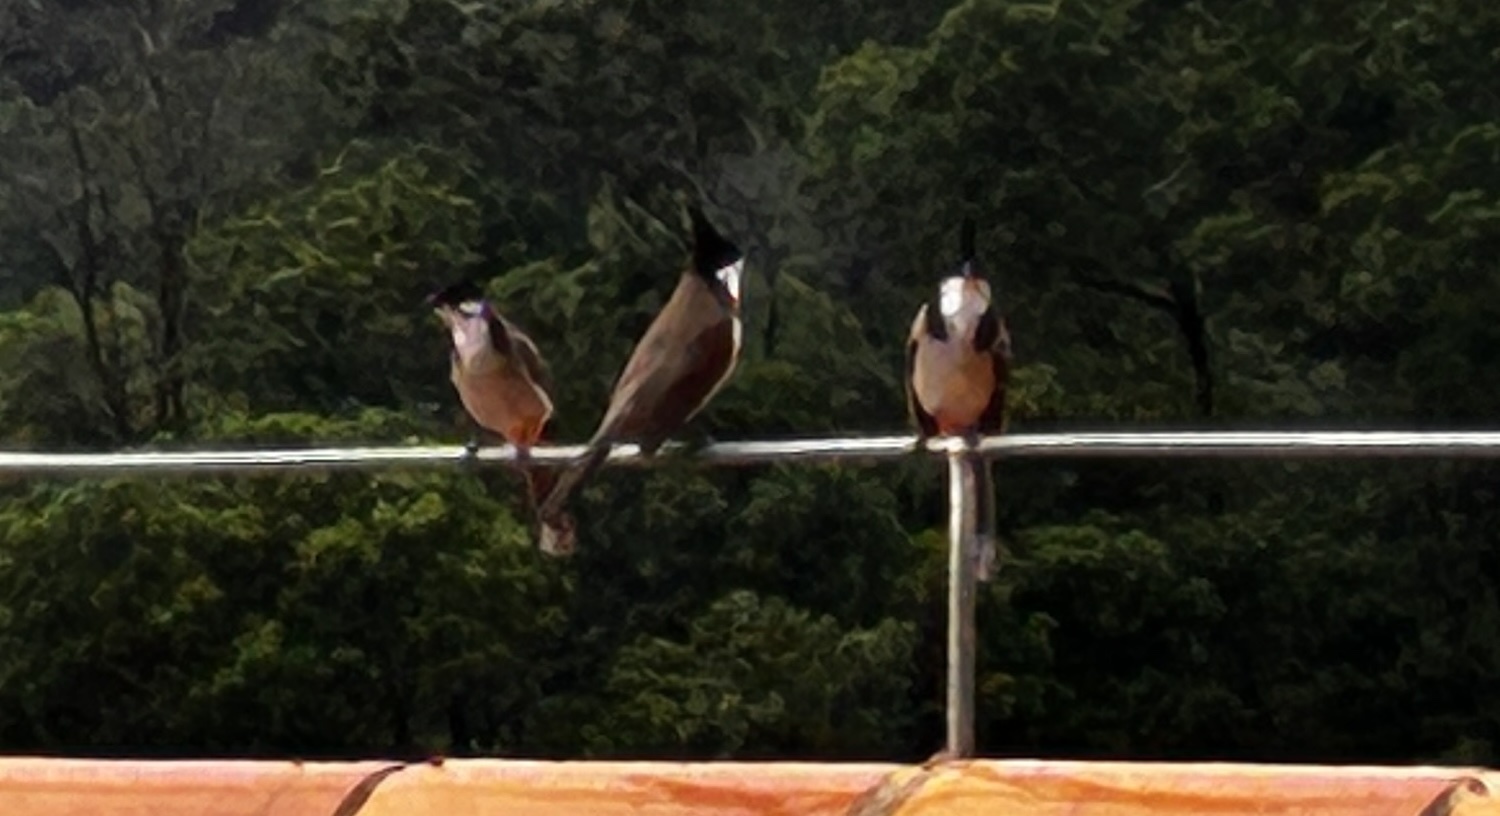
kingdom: Animalia
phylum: Chordata
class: Aves
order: Passeriformes
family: Pycnonotidae
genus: Pycnonotus
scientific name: Pycnonotus jocosus
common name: Red-whiskered bulbul
